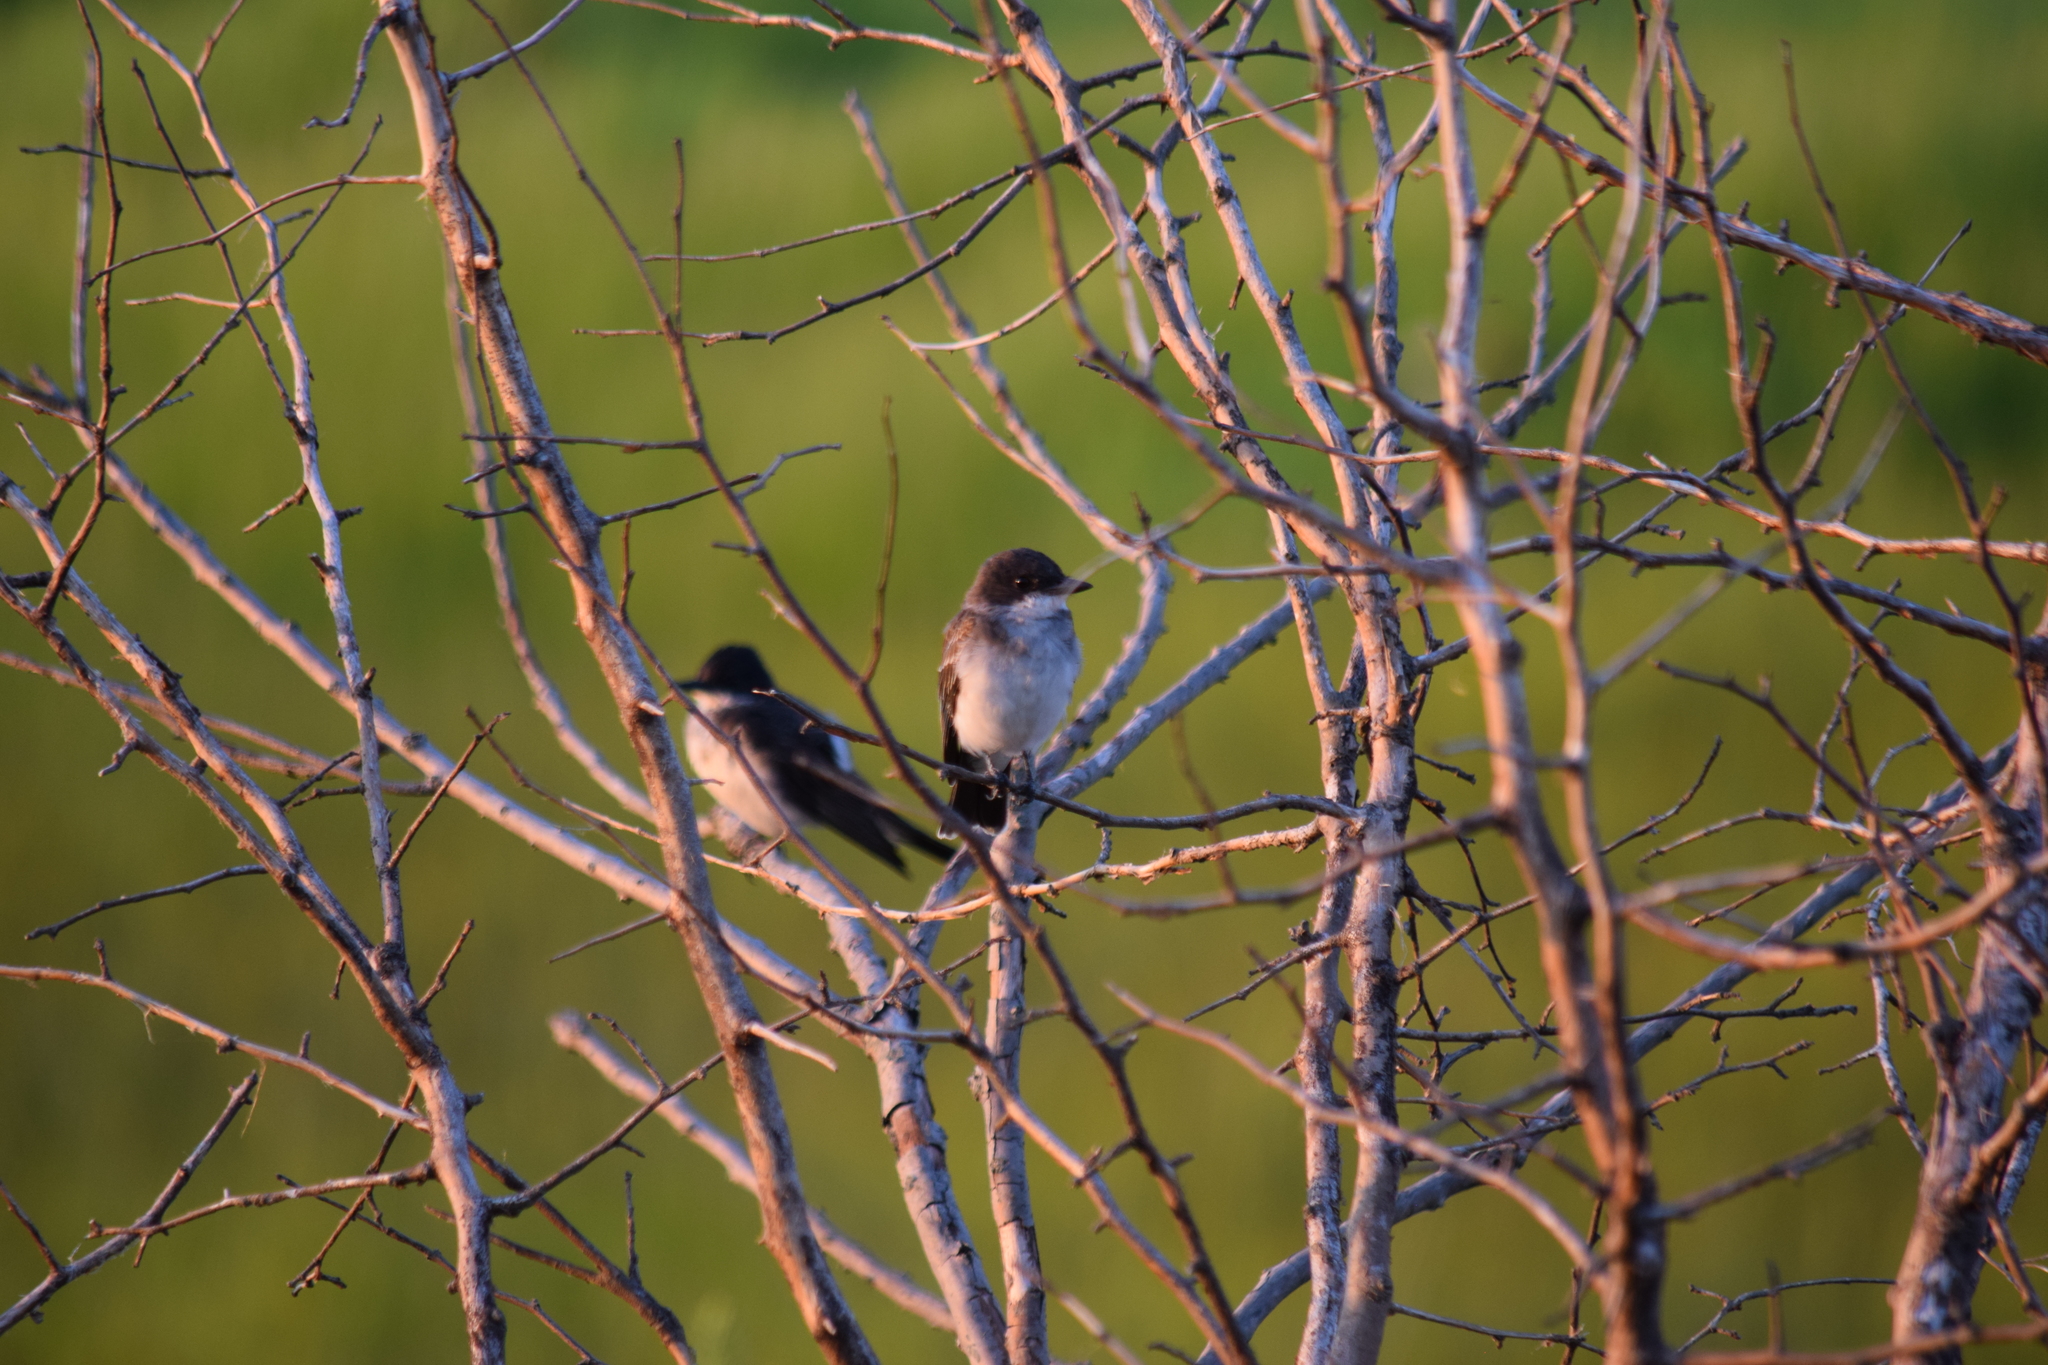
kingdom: Animalia
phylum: Chordata
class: Aves
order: Passeriformes
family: Tyrannidae
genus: Tyrannus
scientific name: Tyrannus tyrannus
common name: Eastern kingbird
